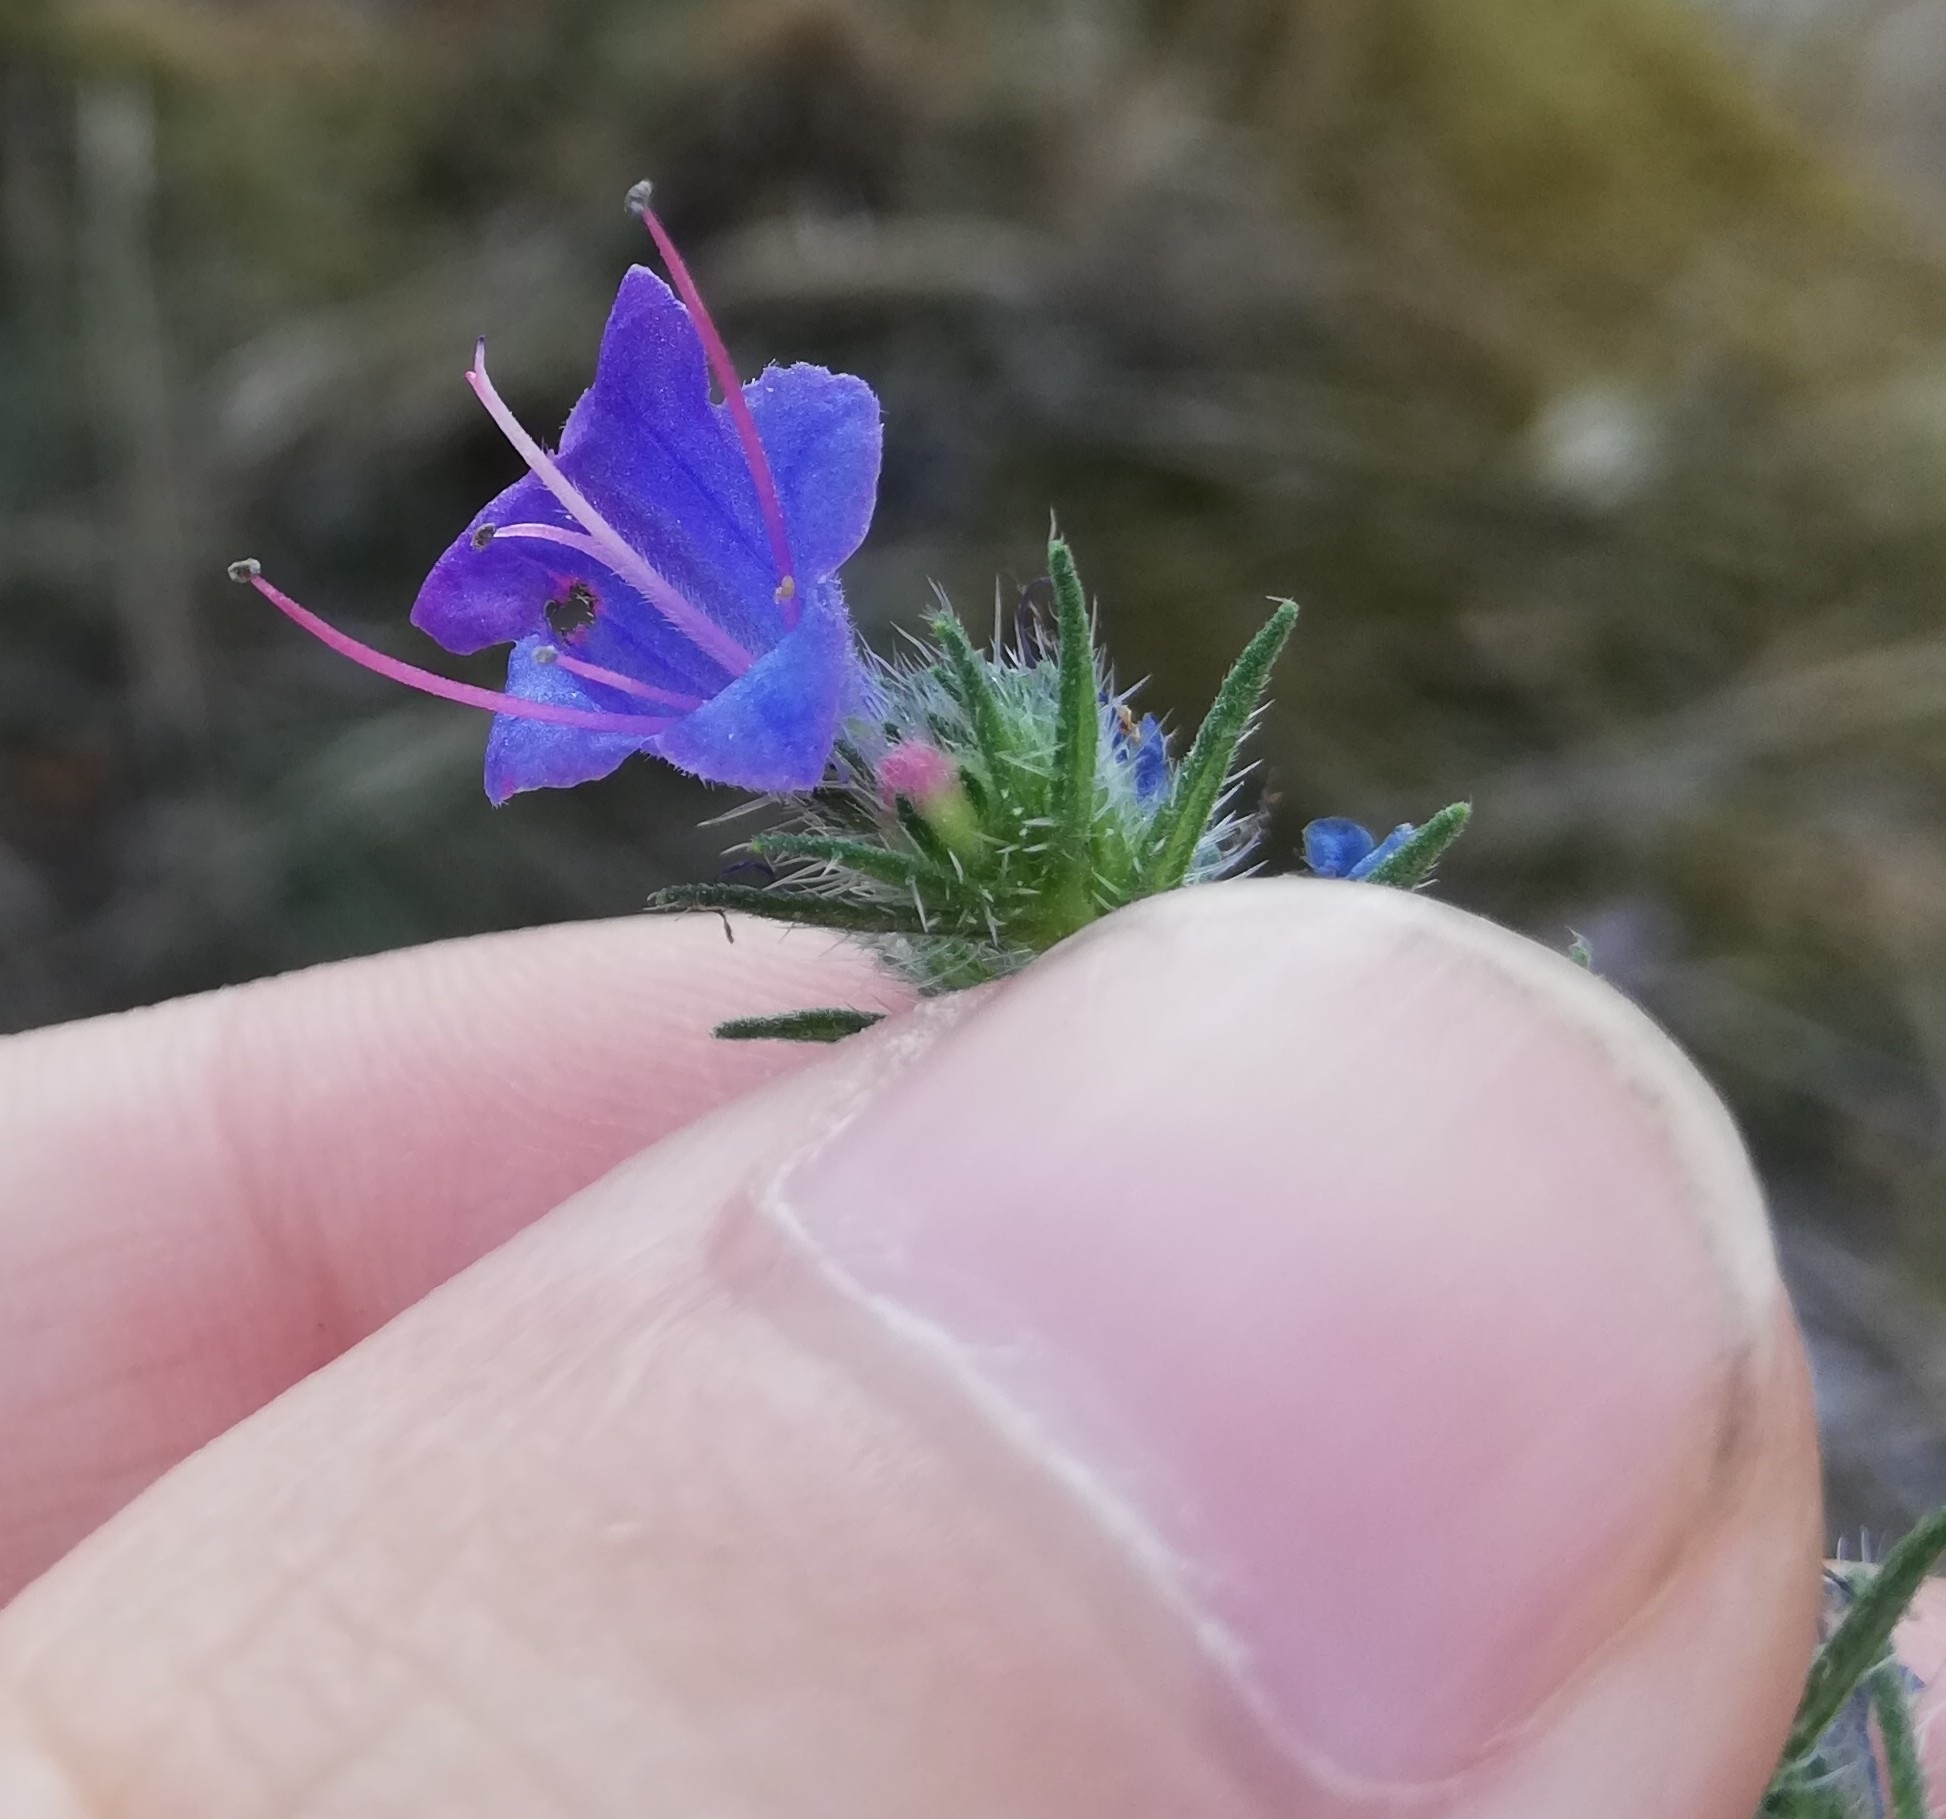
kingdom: Plantae
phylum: Tracheophyta
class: Magnoliopsida
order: Boraginales
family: Boraginaceae
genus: Echium
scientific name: Echium vulgare
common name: Common viper's bugloss
